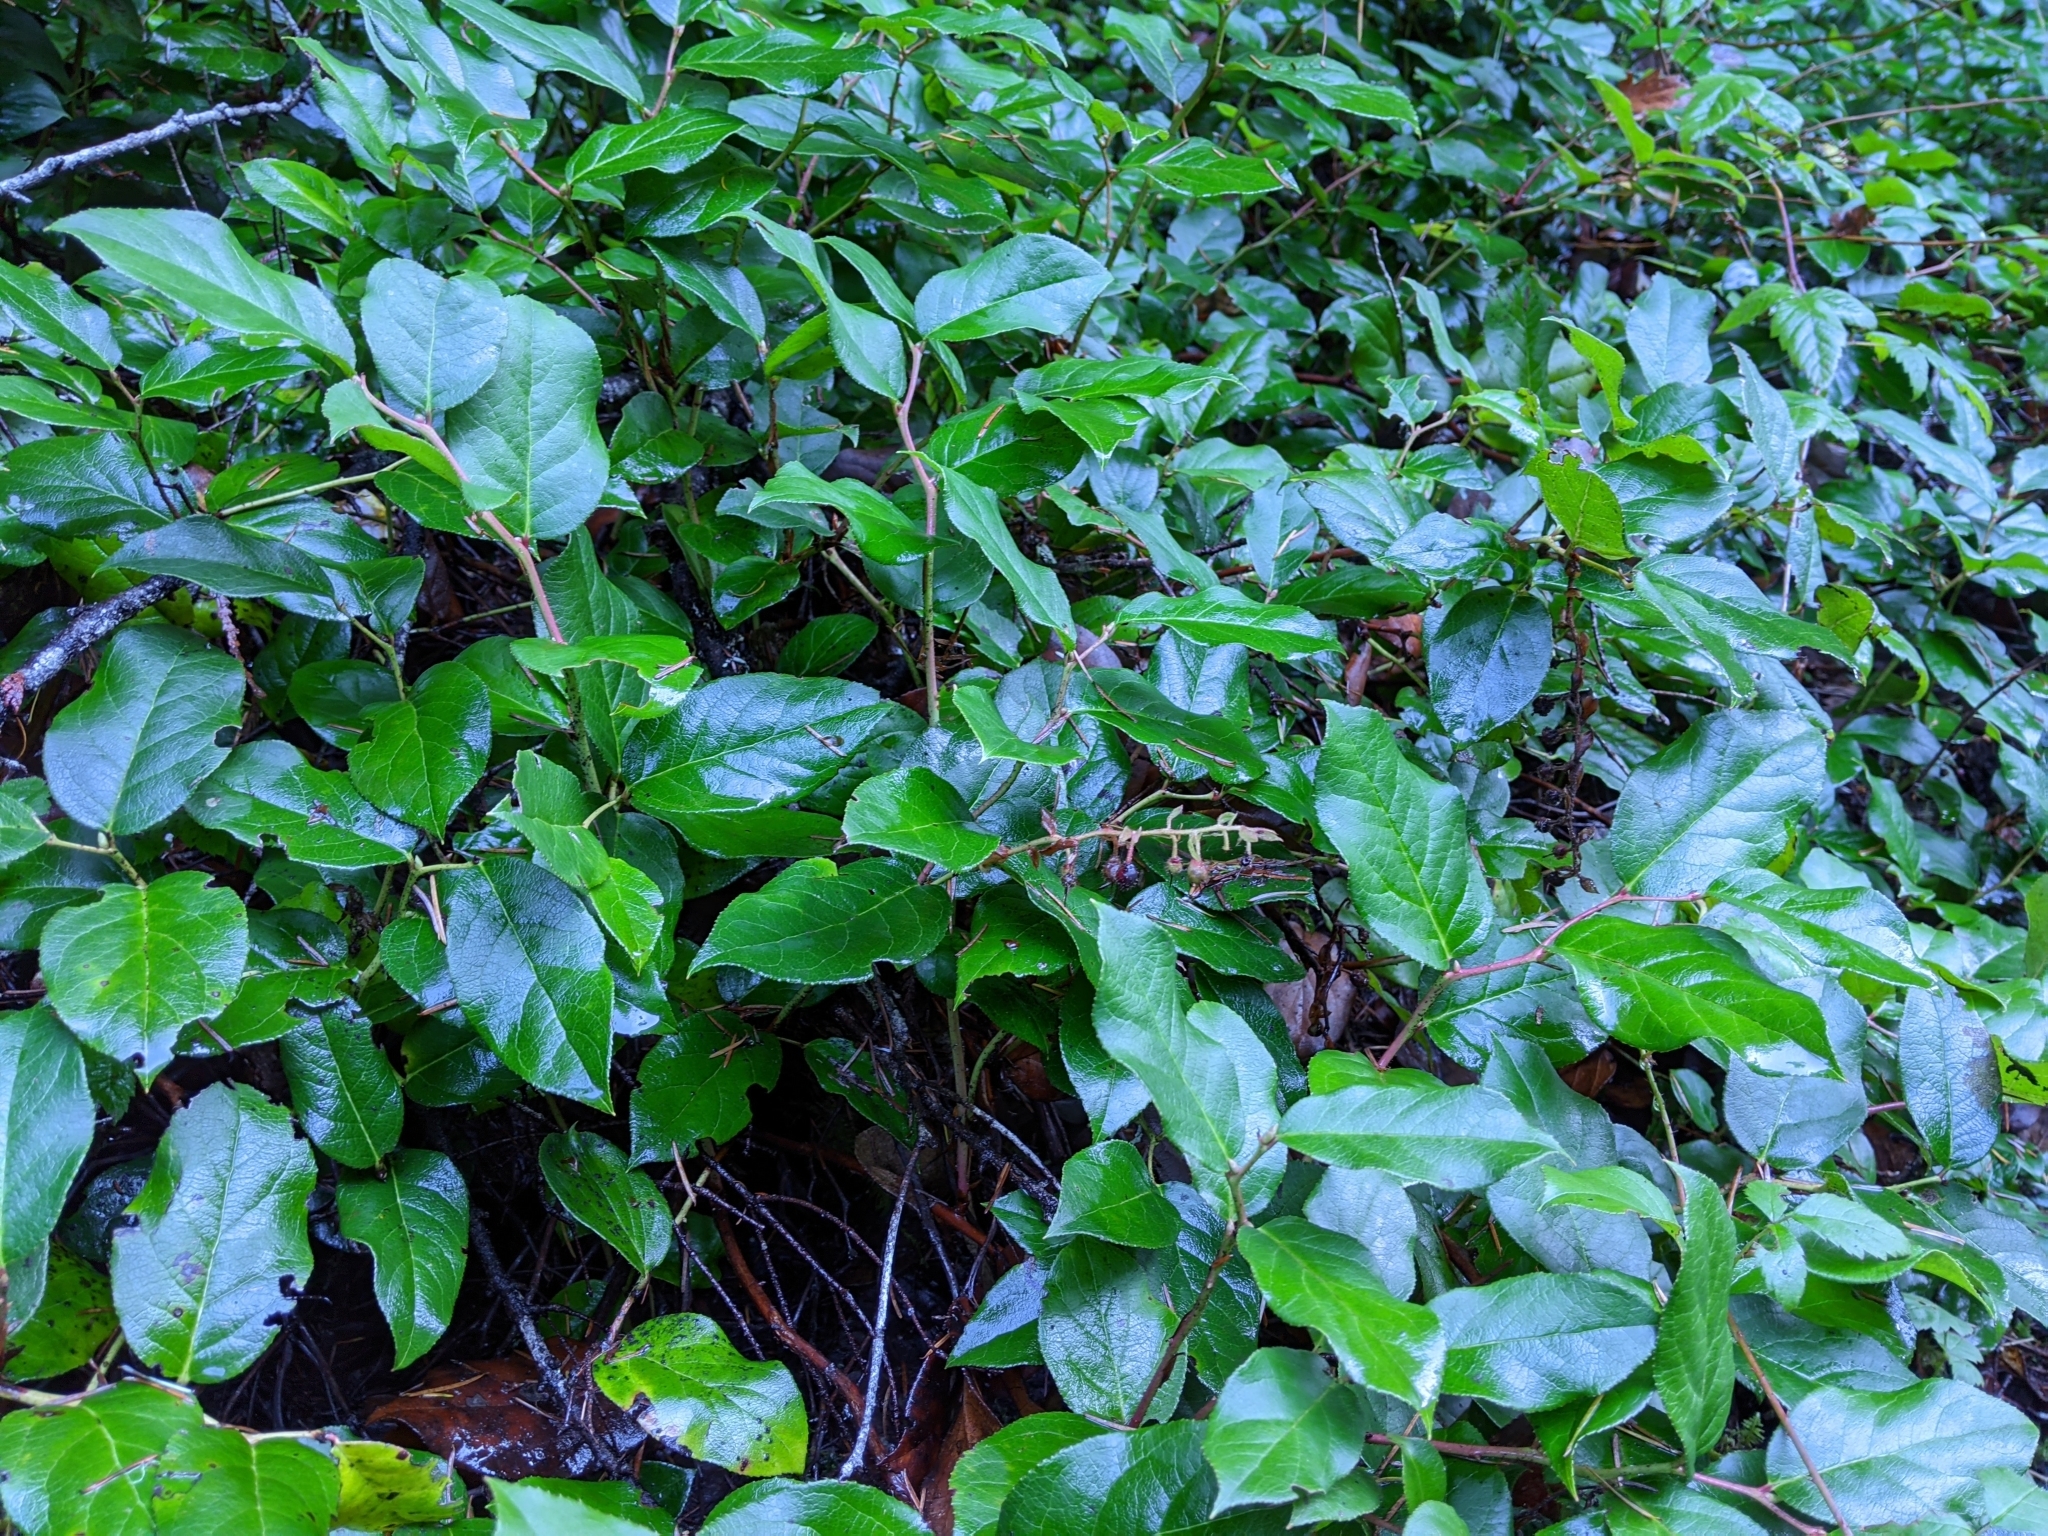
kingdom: Plantae
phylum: Tracheophyta
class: Magnoliopsida
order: Ericales
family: Ericaceae
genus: Gaultheria
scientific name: Gaultheria shallon
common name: Shallon
